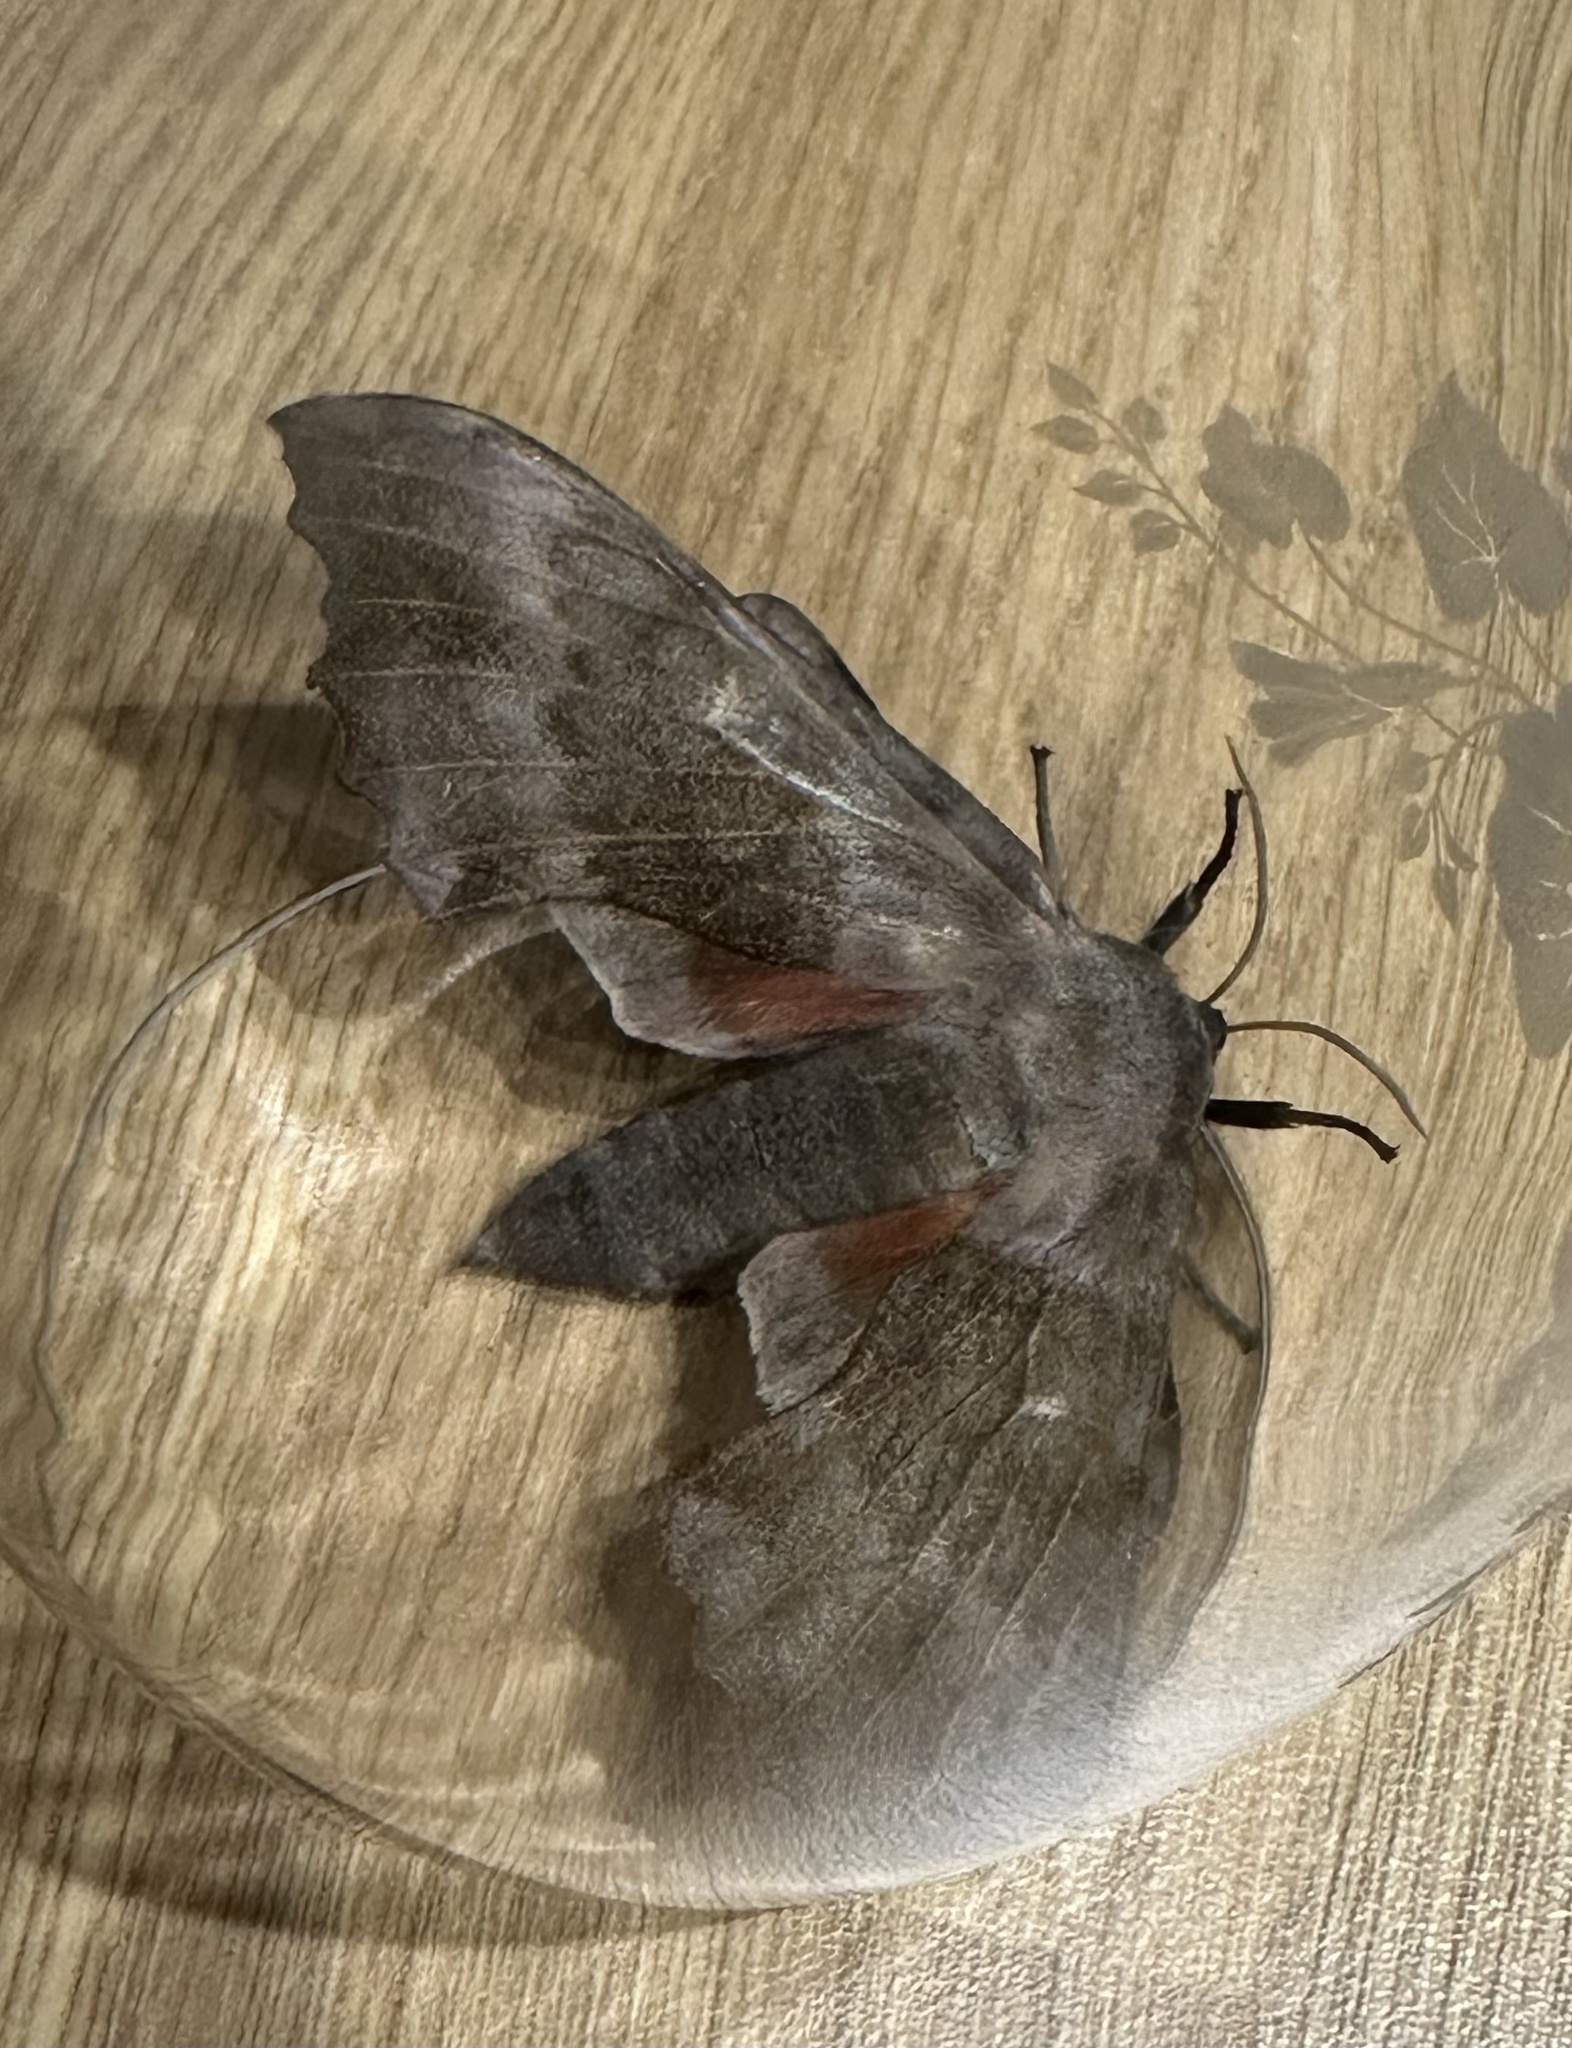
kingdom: Animalia
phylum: Arthropoda
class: Insecta
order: Lepidoptera
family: Sphingidae
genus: Laothoe
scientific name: Laothoe populi
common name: Poplar hawk-moth
